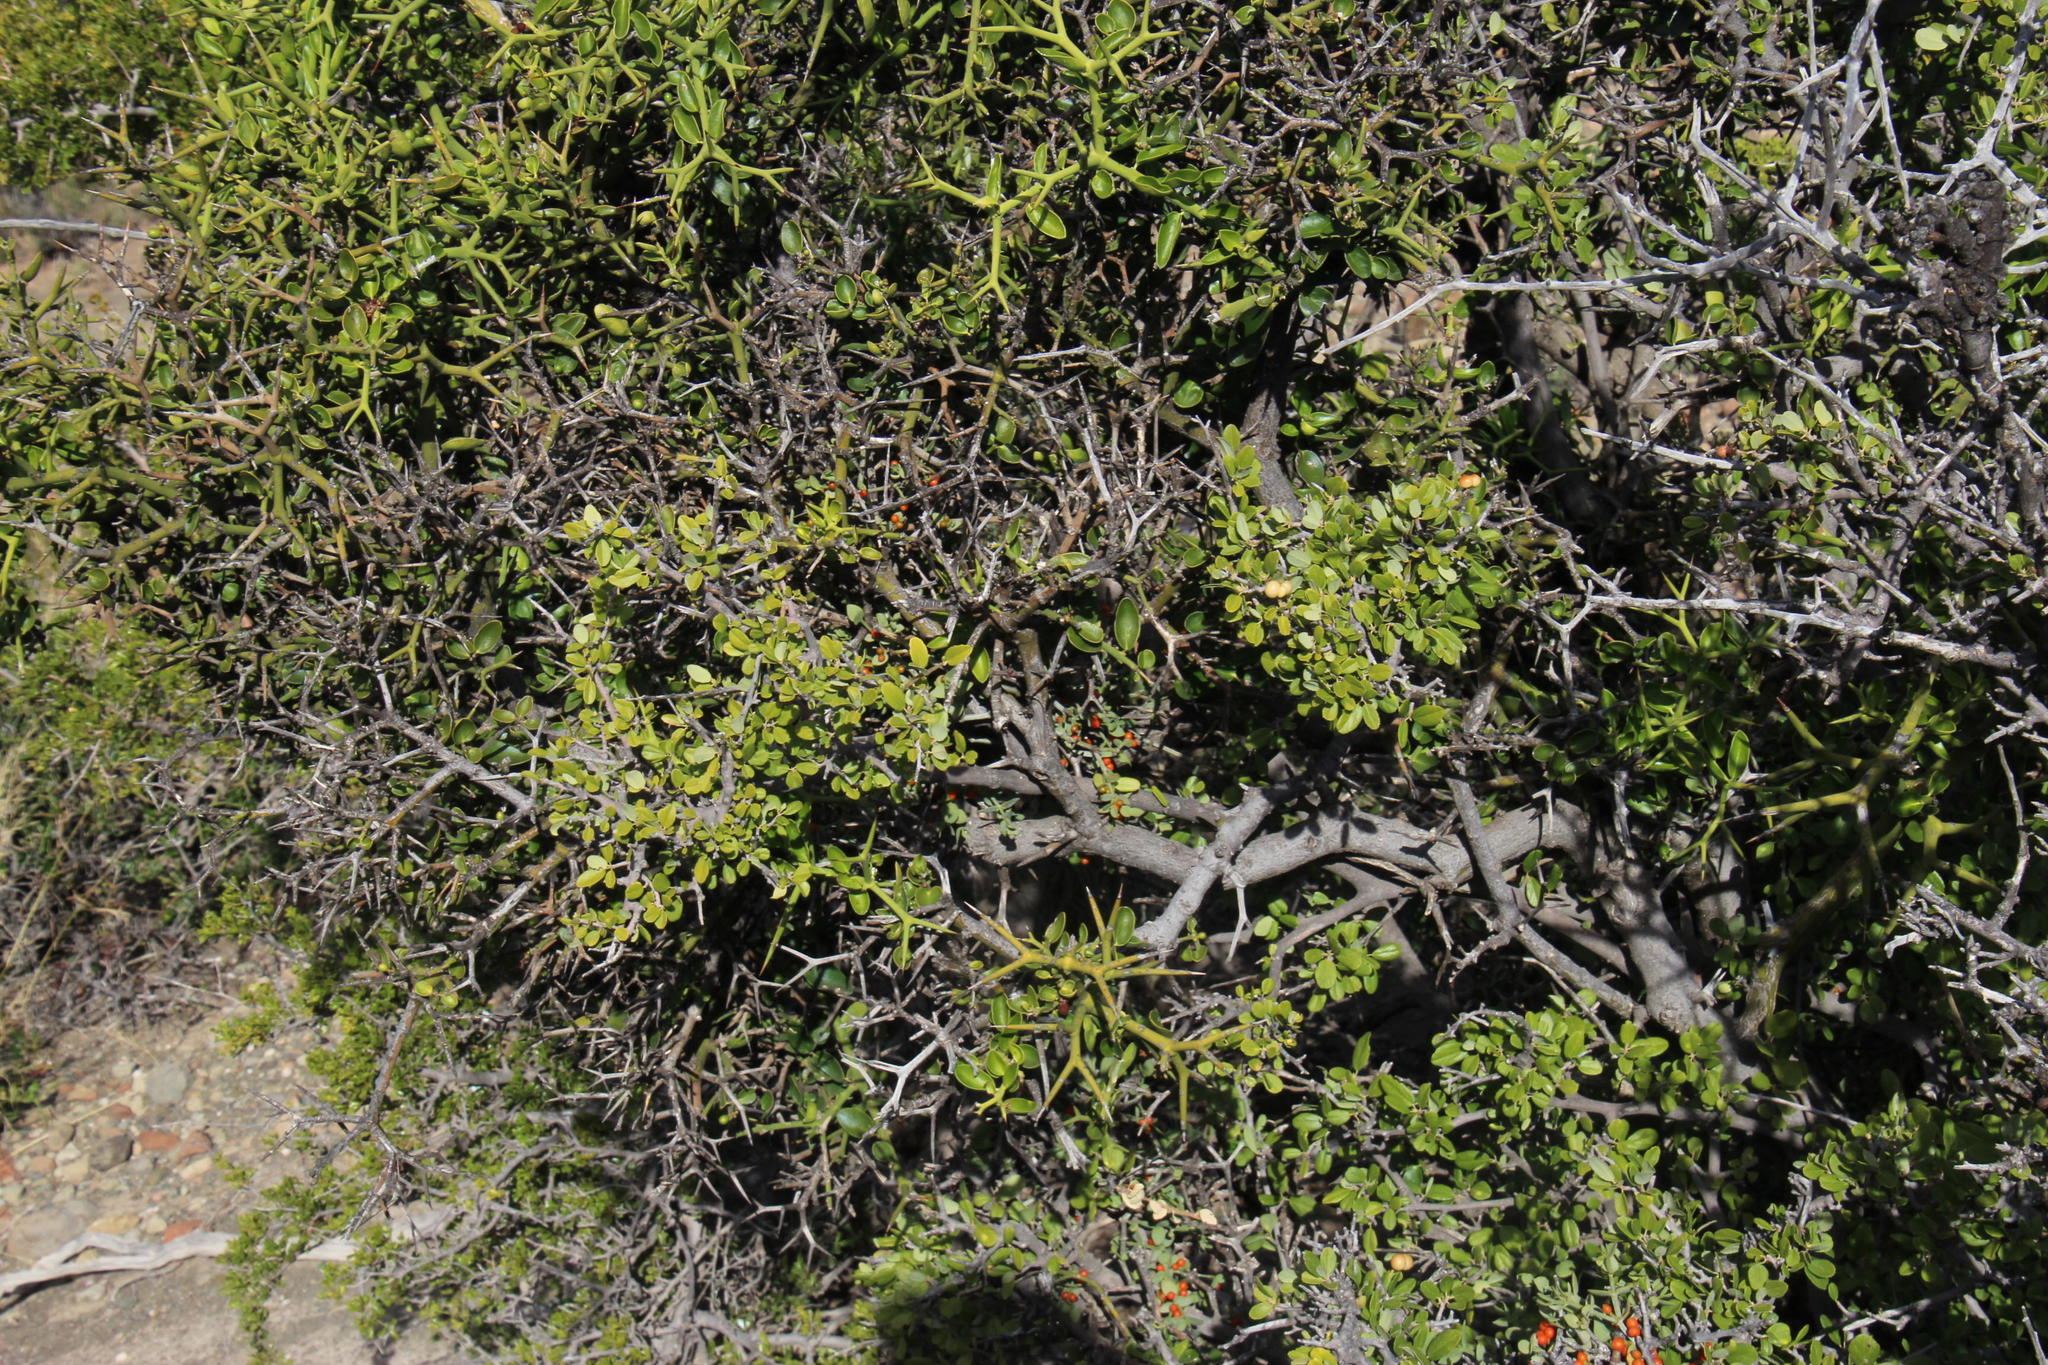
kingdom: Plantae
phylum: Tracheophyta
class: Magnoliopsida
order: Gentianales
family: Apocynaceae
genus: Carissa
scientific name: Carissa haematocarpa
